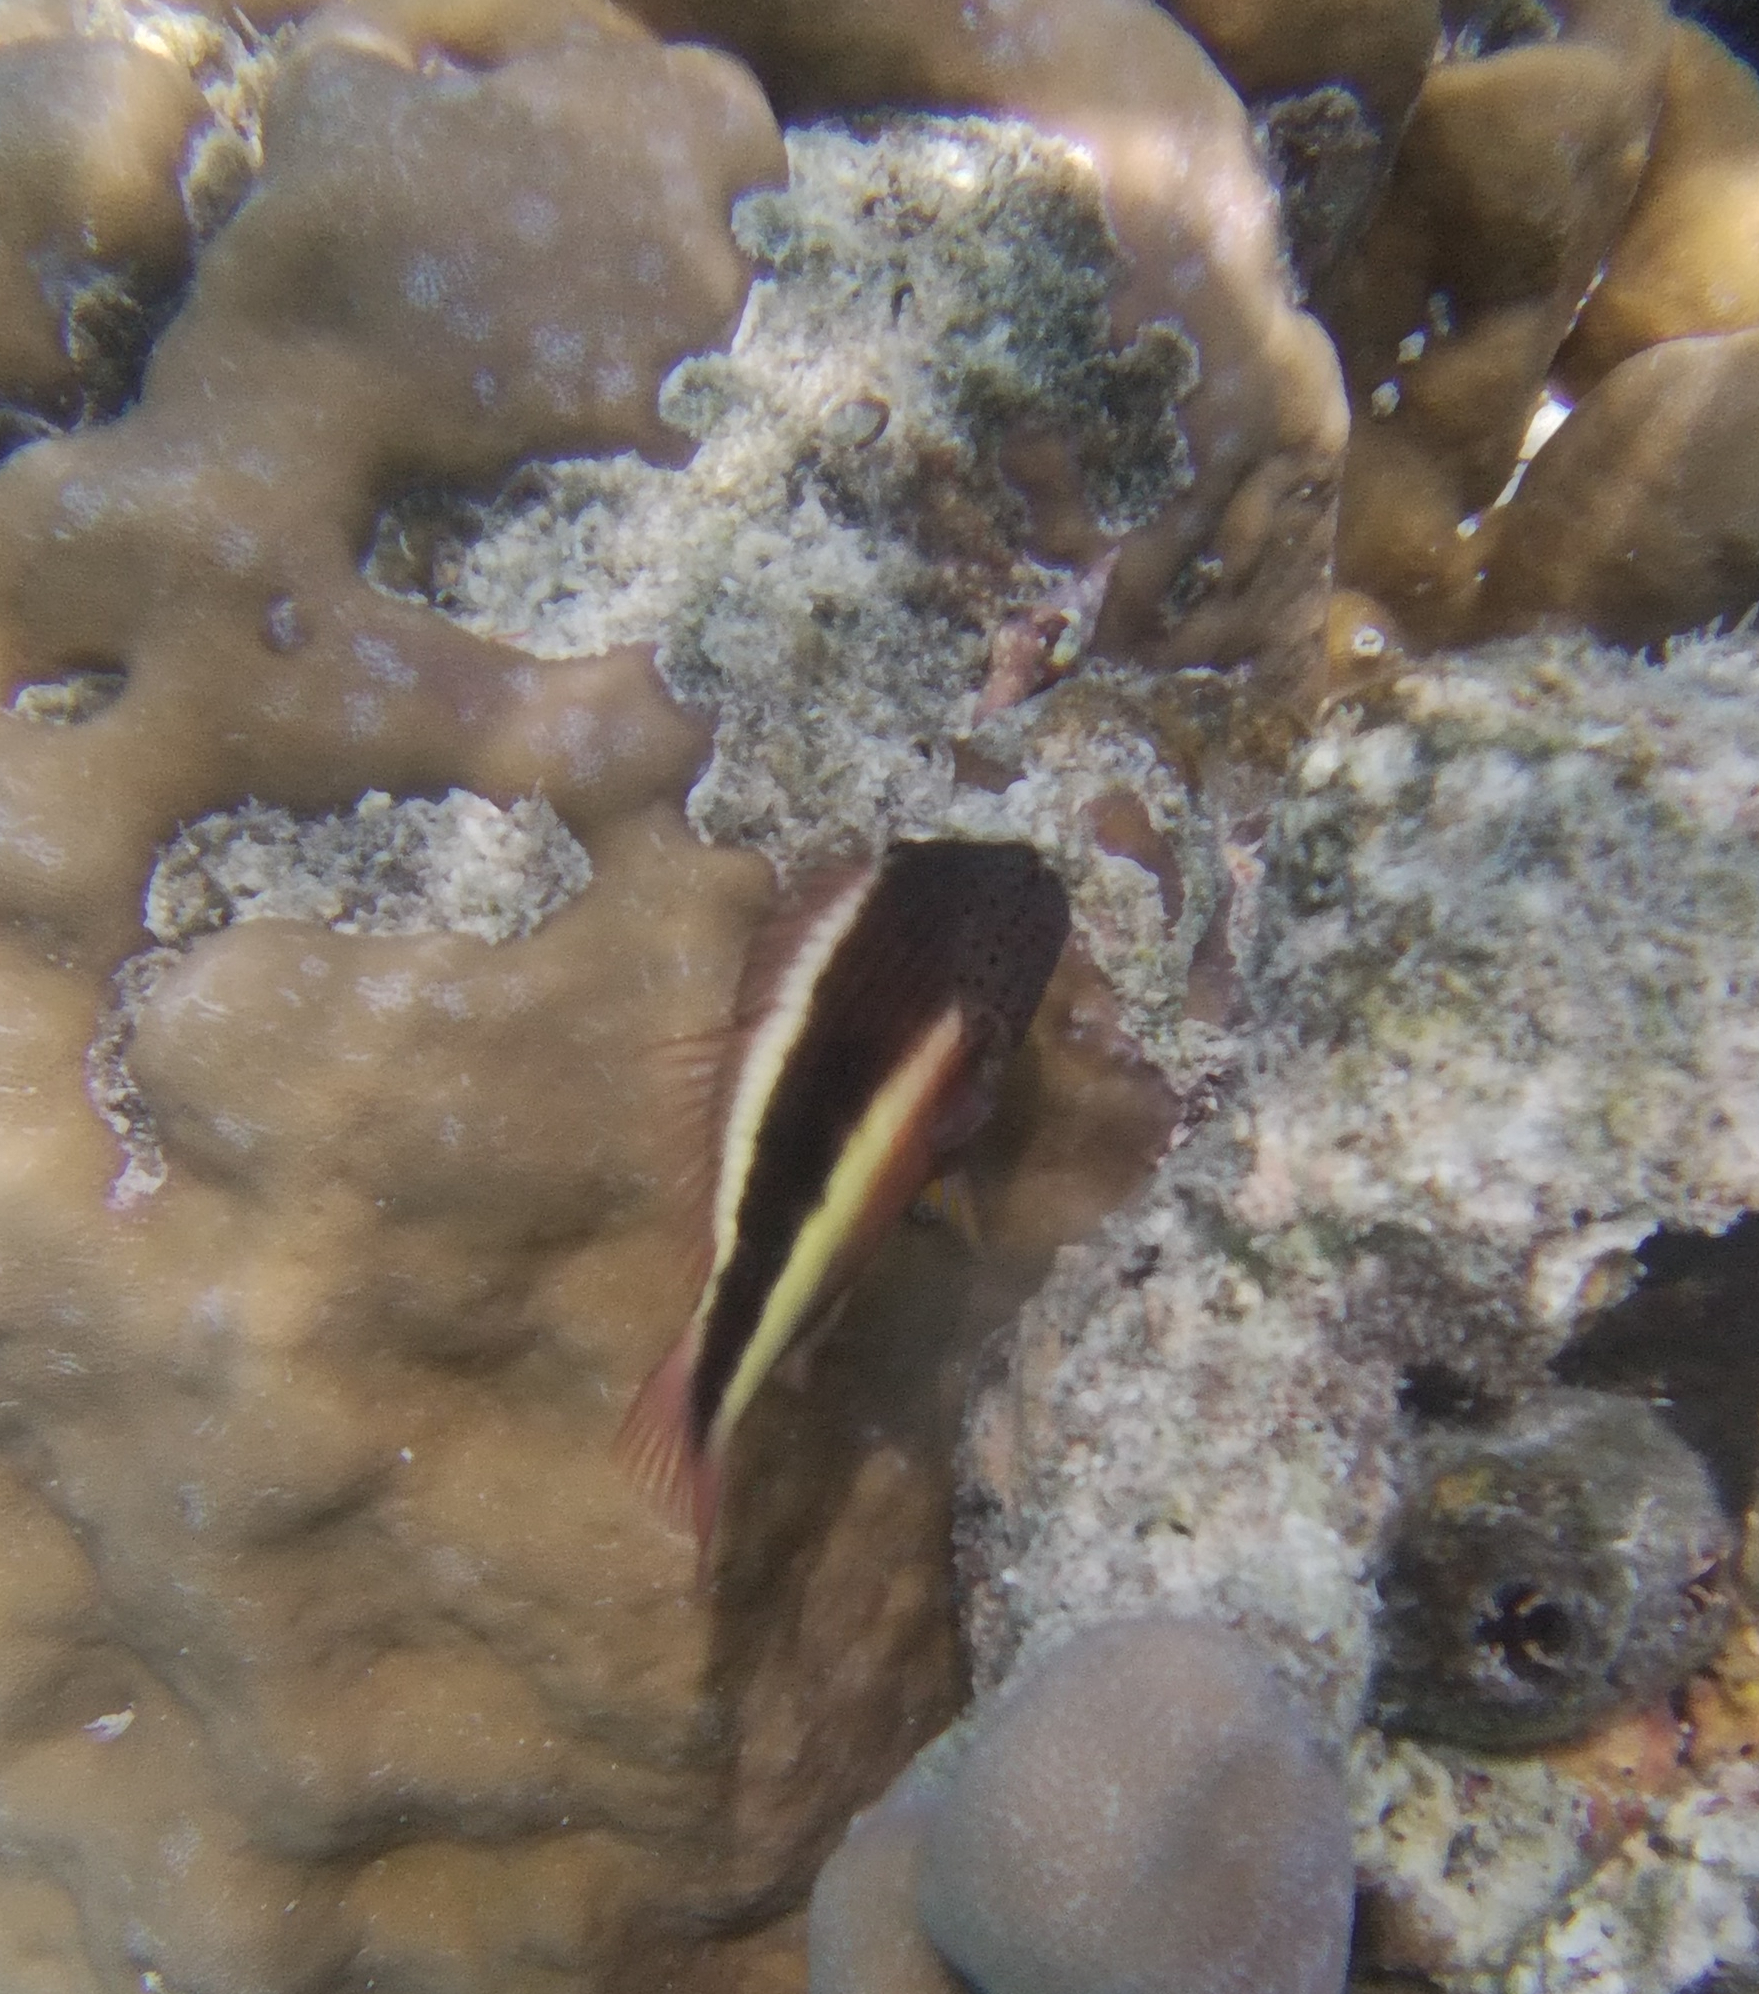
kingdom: Animalia
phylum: Chordata
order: Perciformes
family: Cirrhitidae
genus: Paracirrhites
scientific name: Paracirrhites forsteri
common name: Freckled hawkfish
